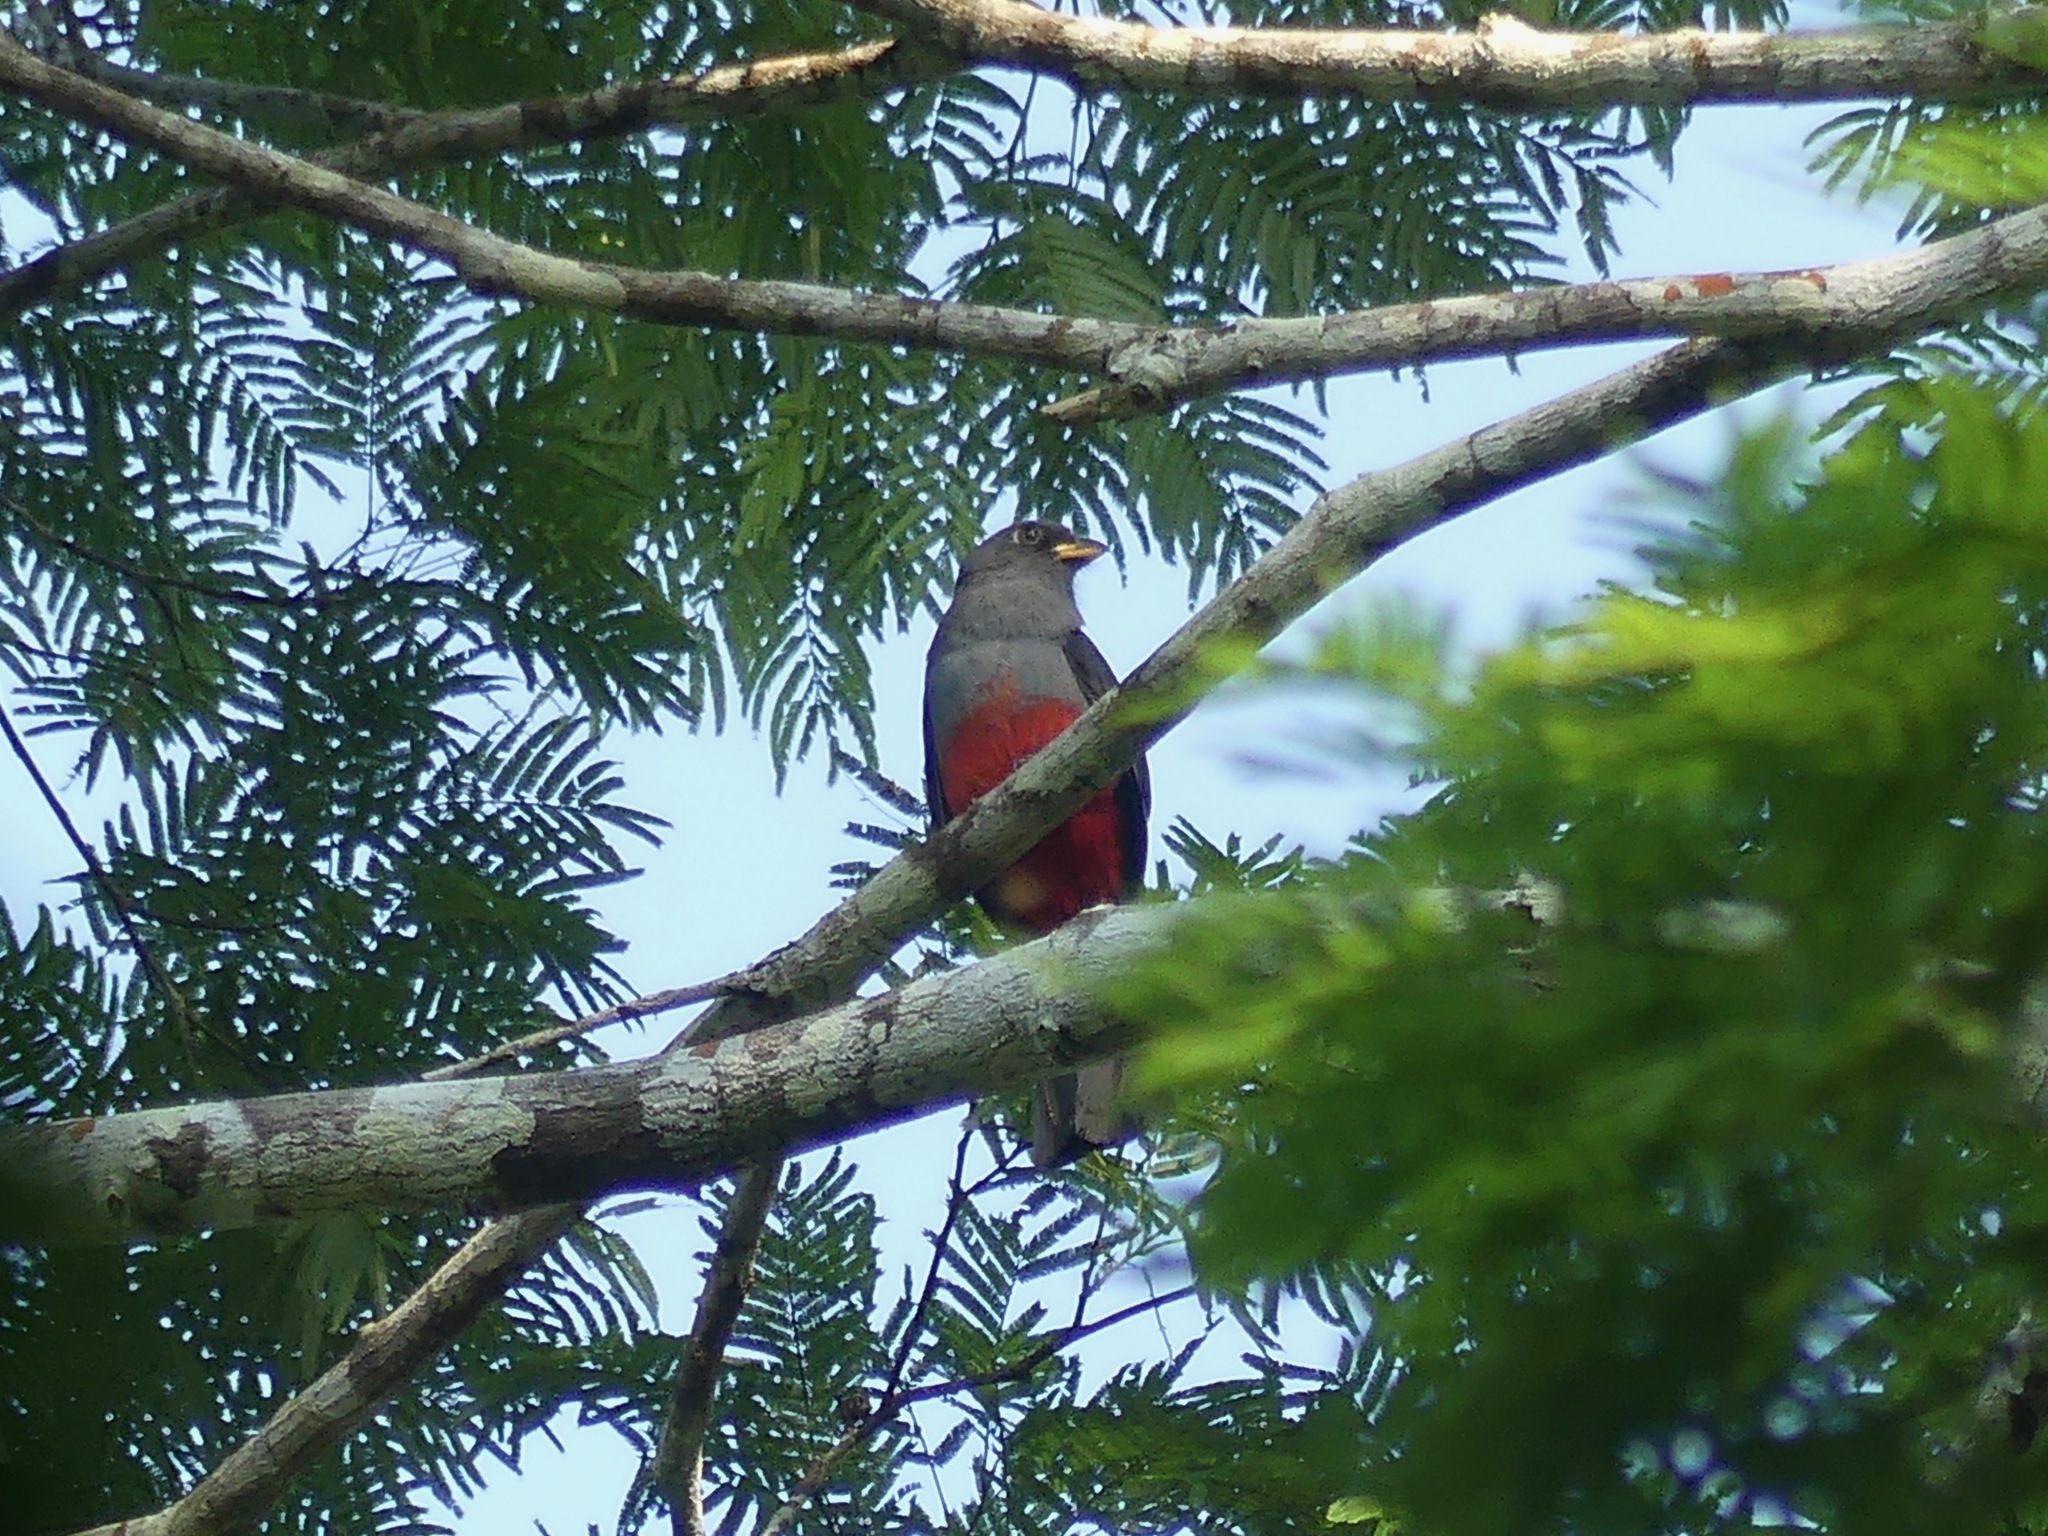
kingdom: Animalia
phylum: Chordata
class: Aves
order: Trogoniformes
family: Trogonidae
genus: Trogon
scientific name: Trogon melanurus
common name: Black-tailed trogon
